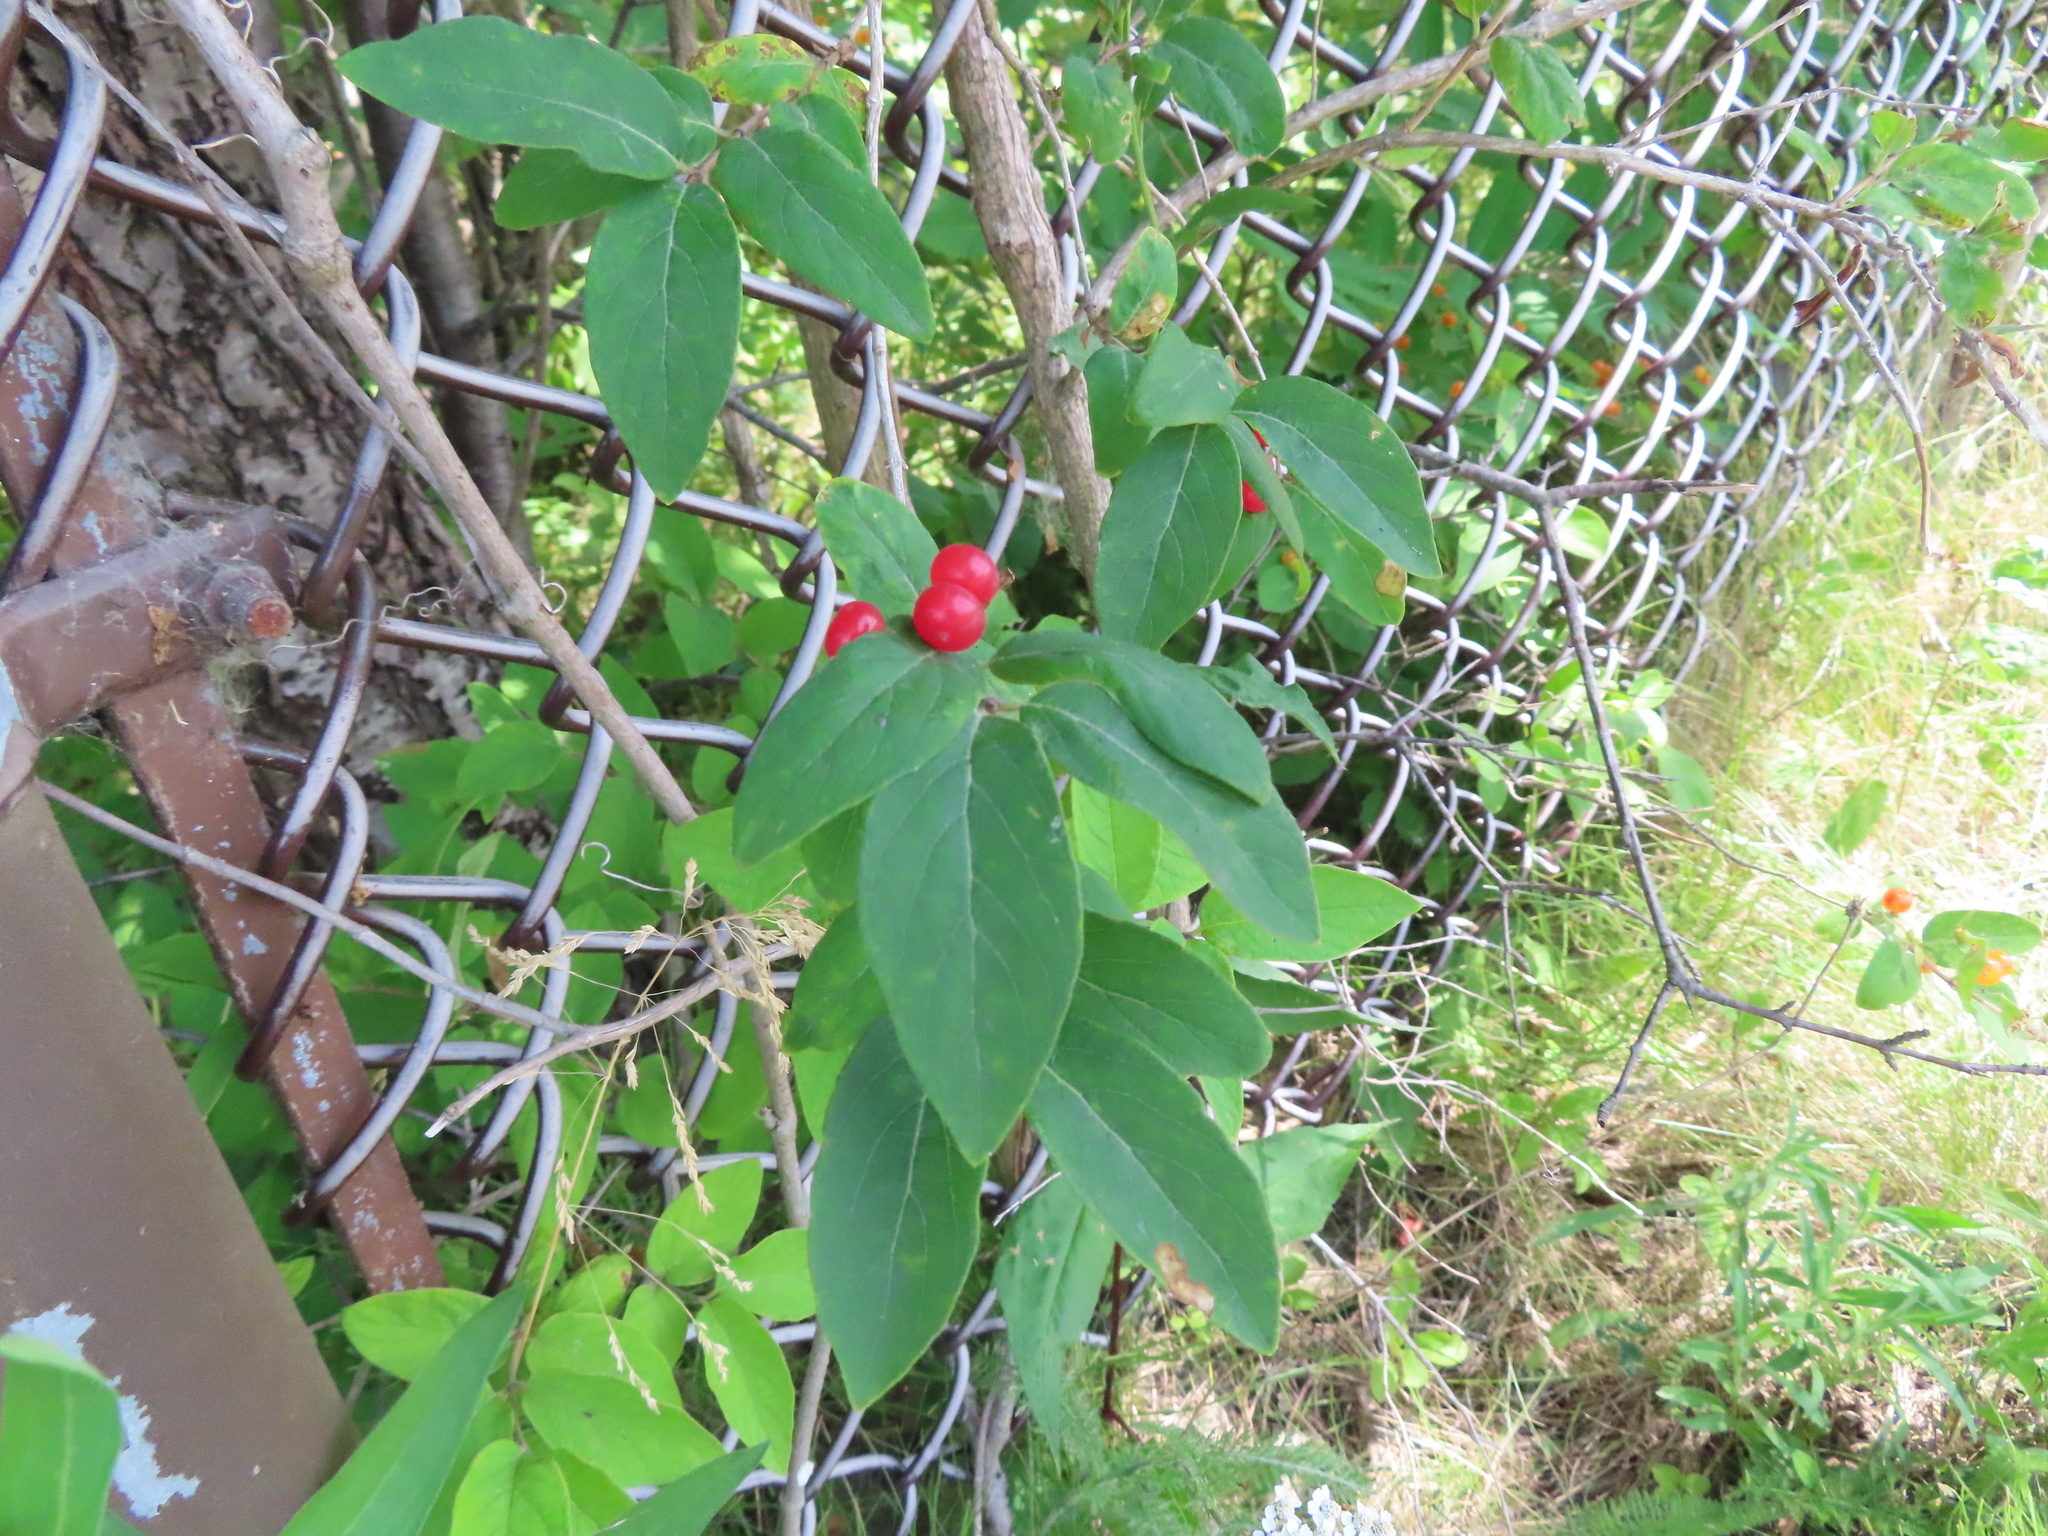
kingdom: Plantae
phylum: Tracheophyta
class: Magnoliopsida
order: Dipsacales
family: Caprifoliaceae
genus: Lonicera
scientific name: Lonicera
